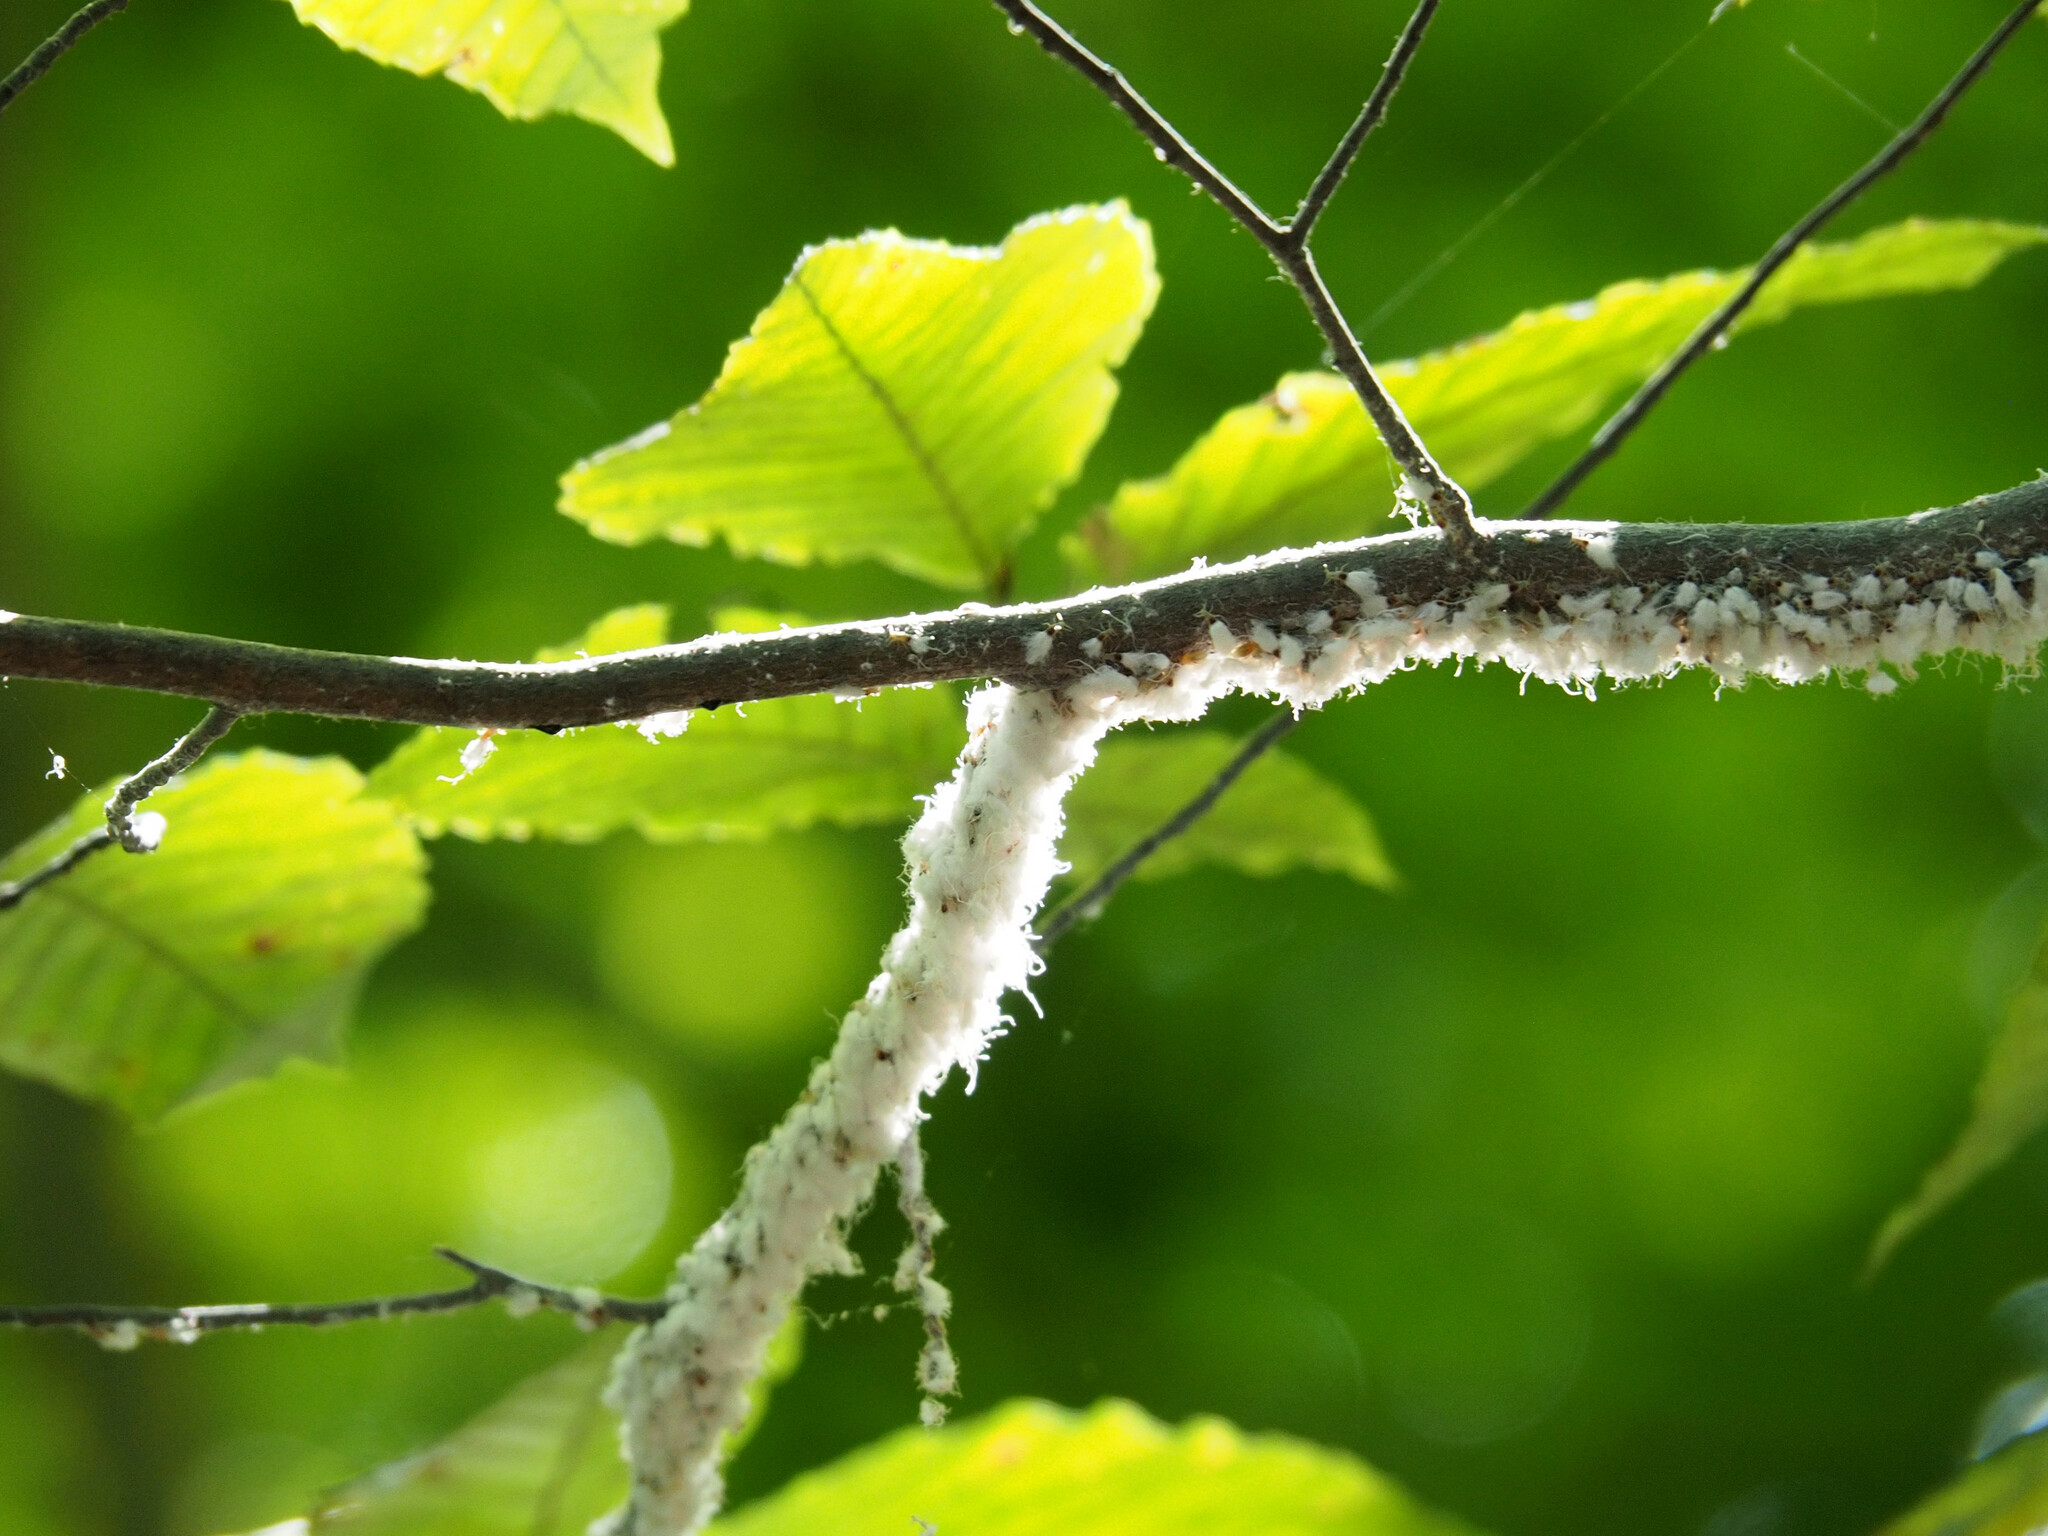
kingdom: Animalia
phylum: Arthropoda
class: Insecta
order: Hemiptera
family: Aphididae
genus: Grylloprociphilus
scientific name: Grylloprociphilus imbricator
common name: Beech blight aphid
